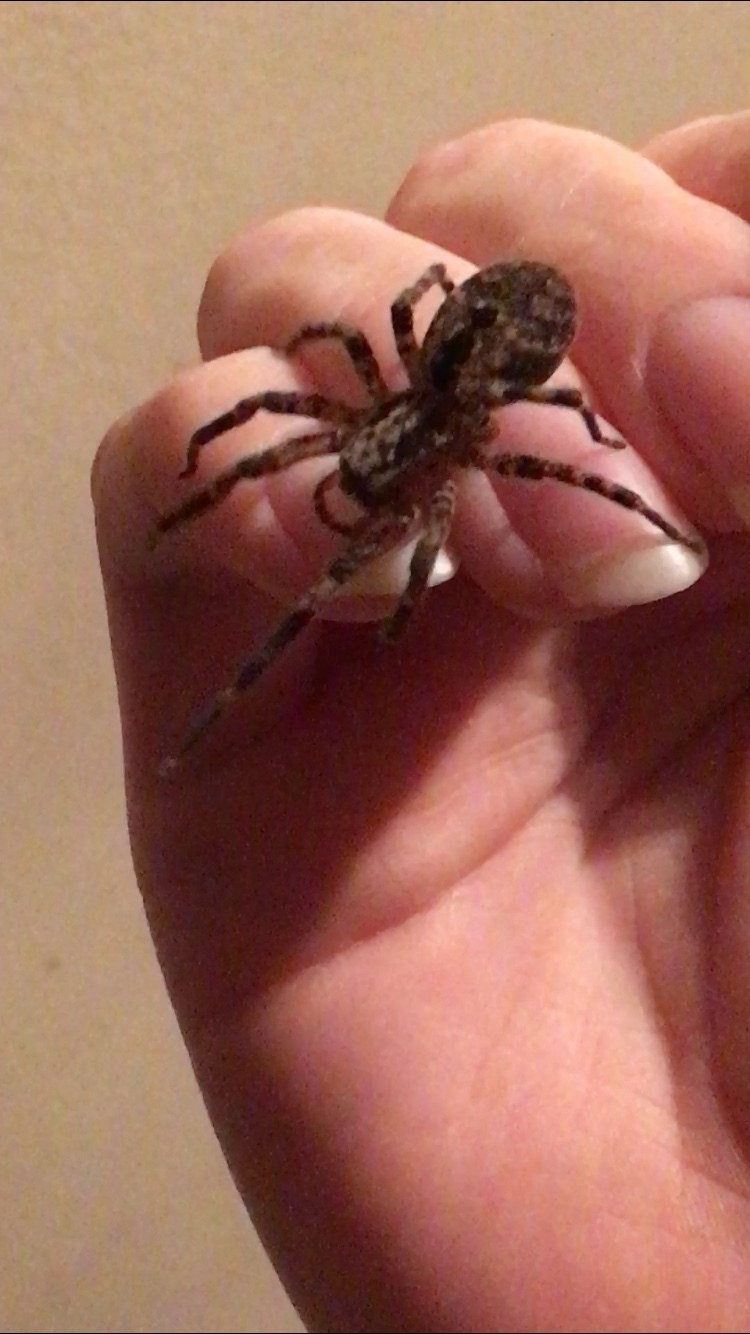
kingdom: Animalia
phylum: Arthropoda
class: Arachnida
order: Araneae
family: Zoropsidae
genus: Zoropsis
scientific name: Zoropsis spinimana
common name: Zoropsid spider
